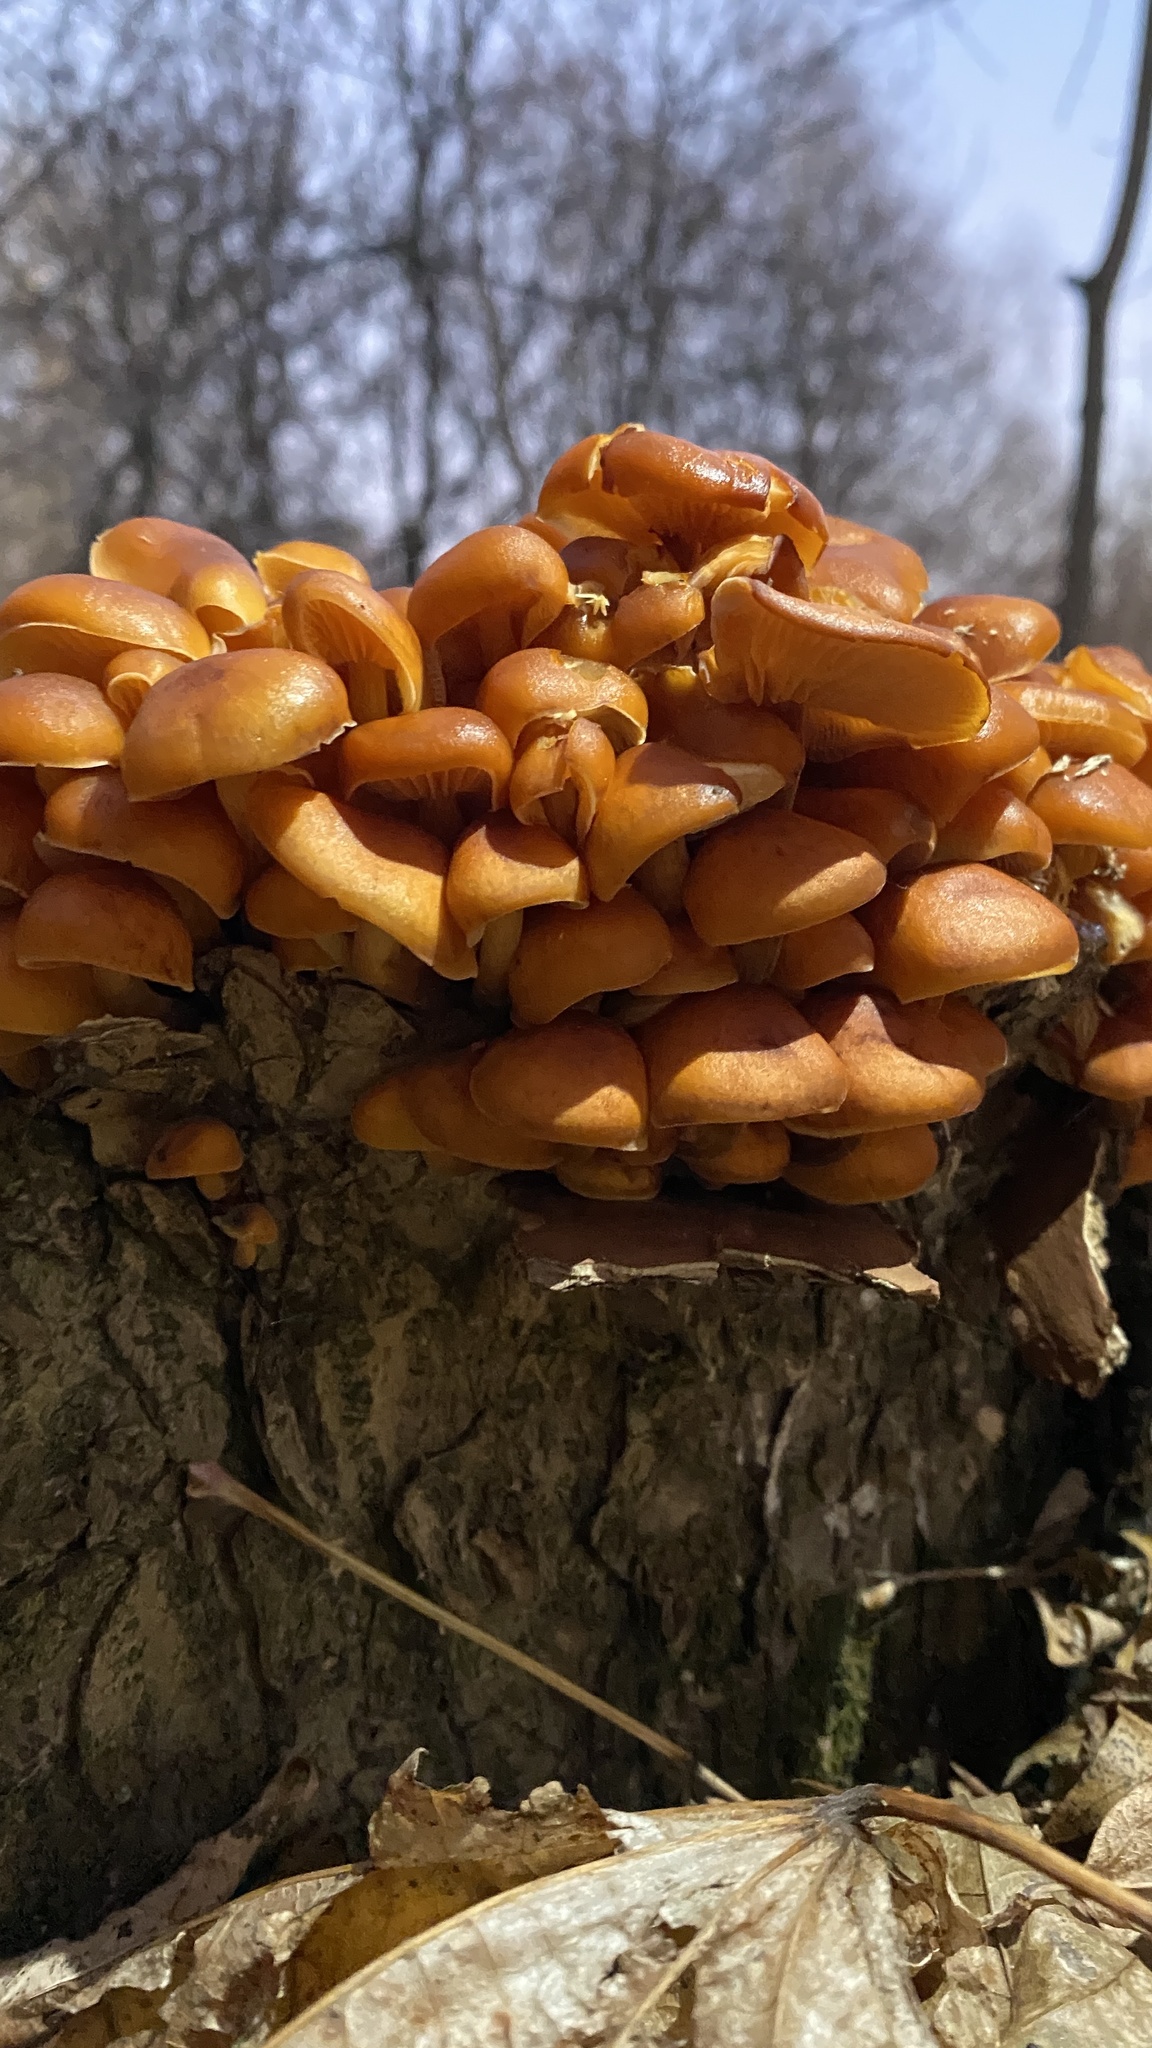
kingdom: Fungi
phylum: Basidiomycota
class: Agaricomycetes
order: Agaricales
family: Physalacriaceae
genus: Flammulina
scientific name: Flammulina
